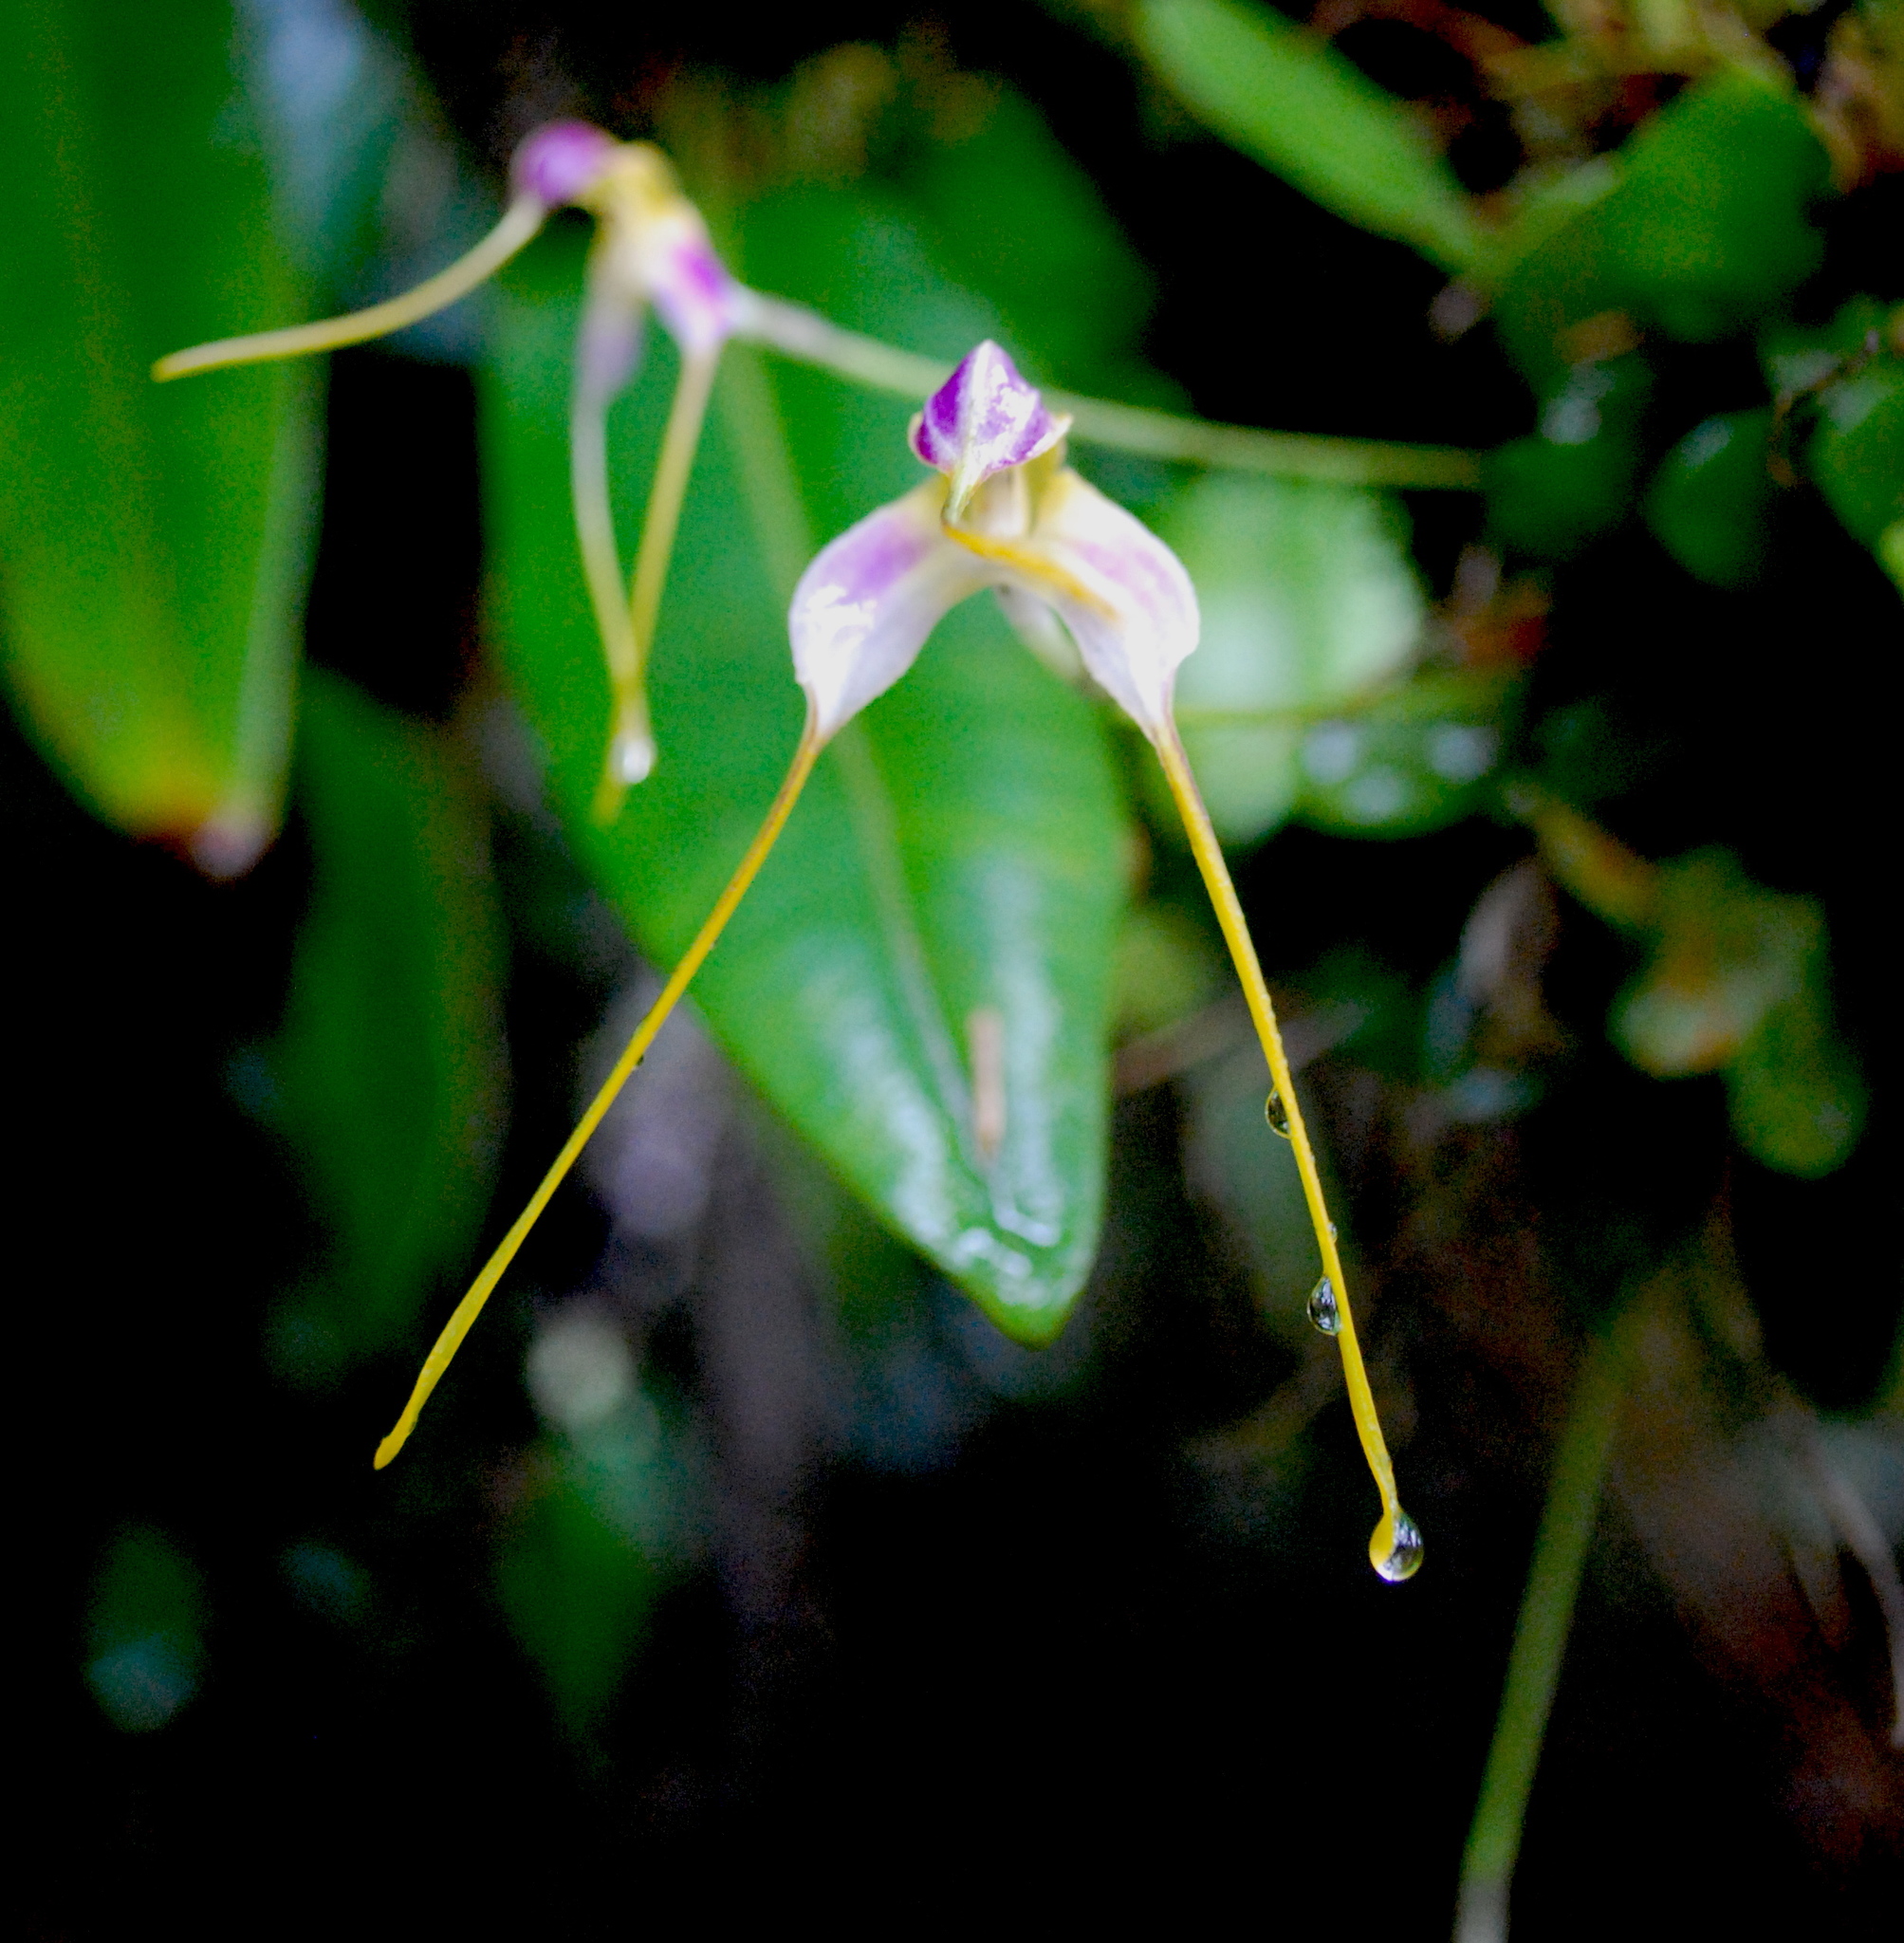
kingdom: Plantae
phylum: Tracheophyta
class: Liliopsida
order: Asparagales
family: Orchidaceae
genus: Masdevallia
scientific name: Masdevallia estradae
